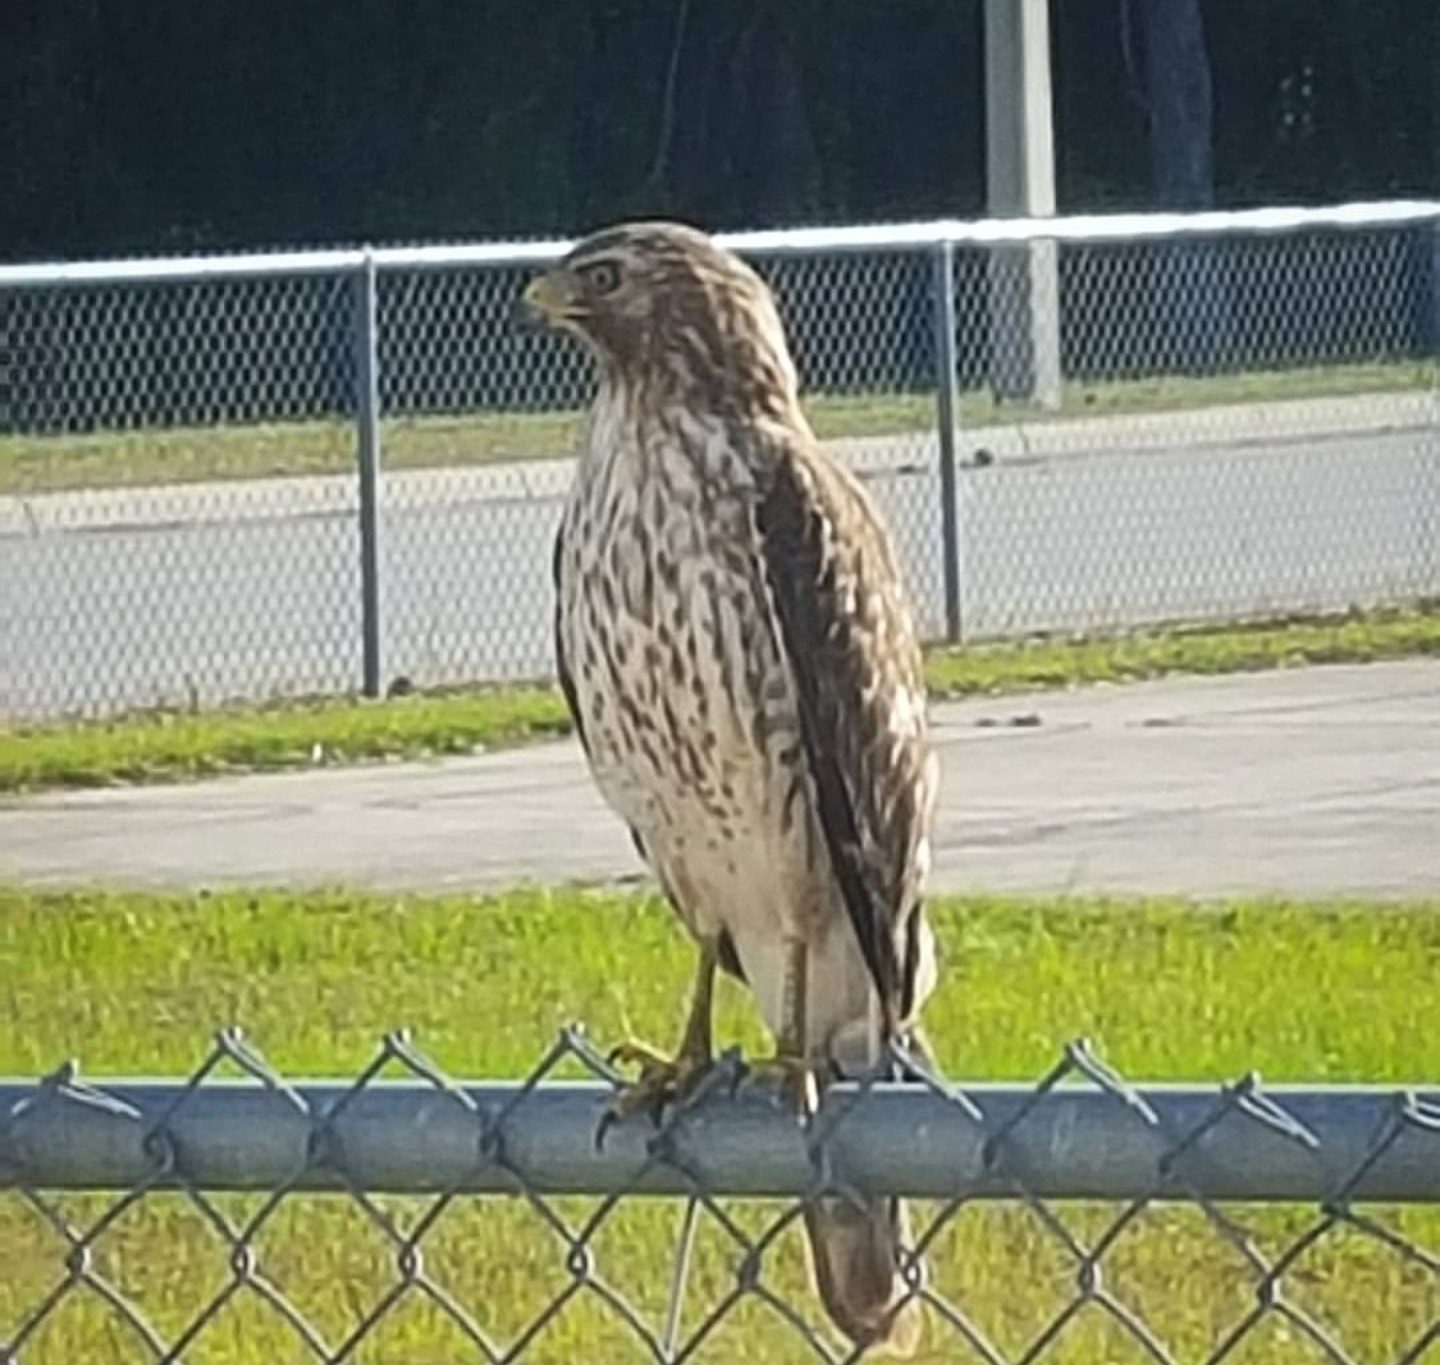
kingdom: Animalia
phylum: Chordata
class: Aves
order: Accipitriformes
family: Accipitridae
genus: Buteo
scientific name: Buteo lineatus
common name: Red-shouldered hawk
